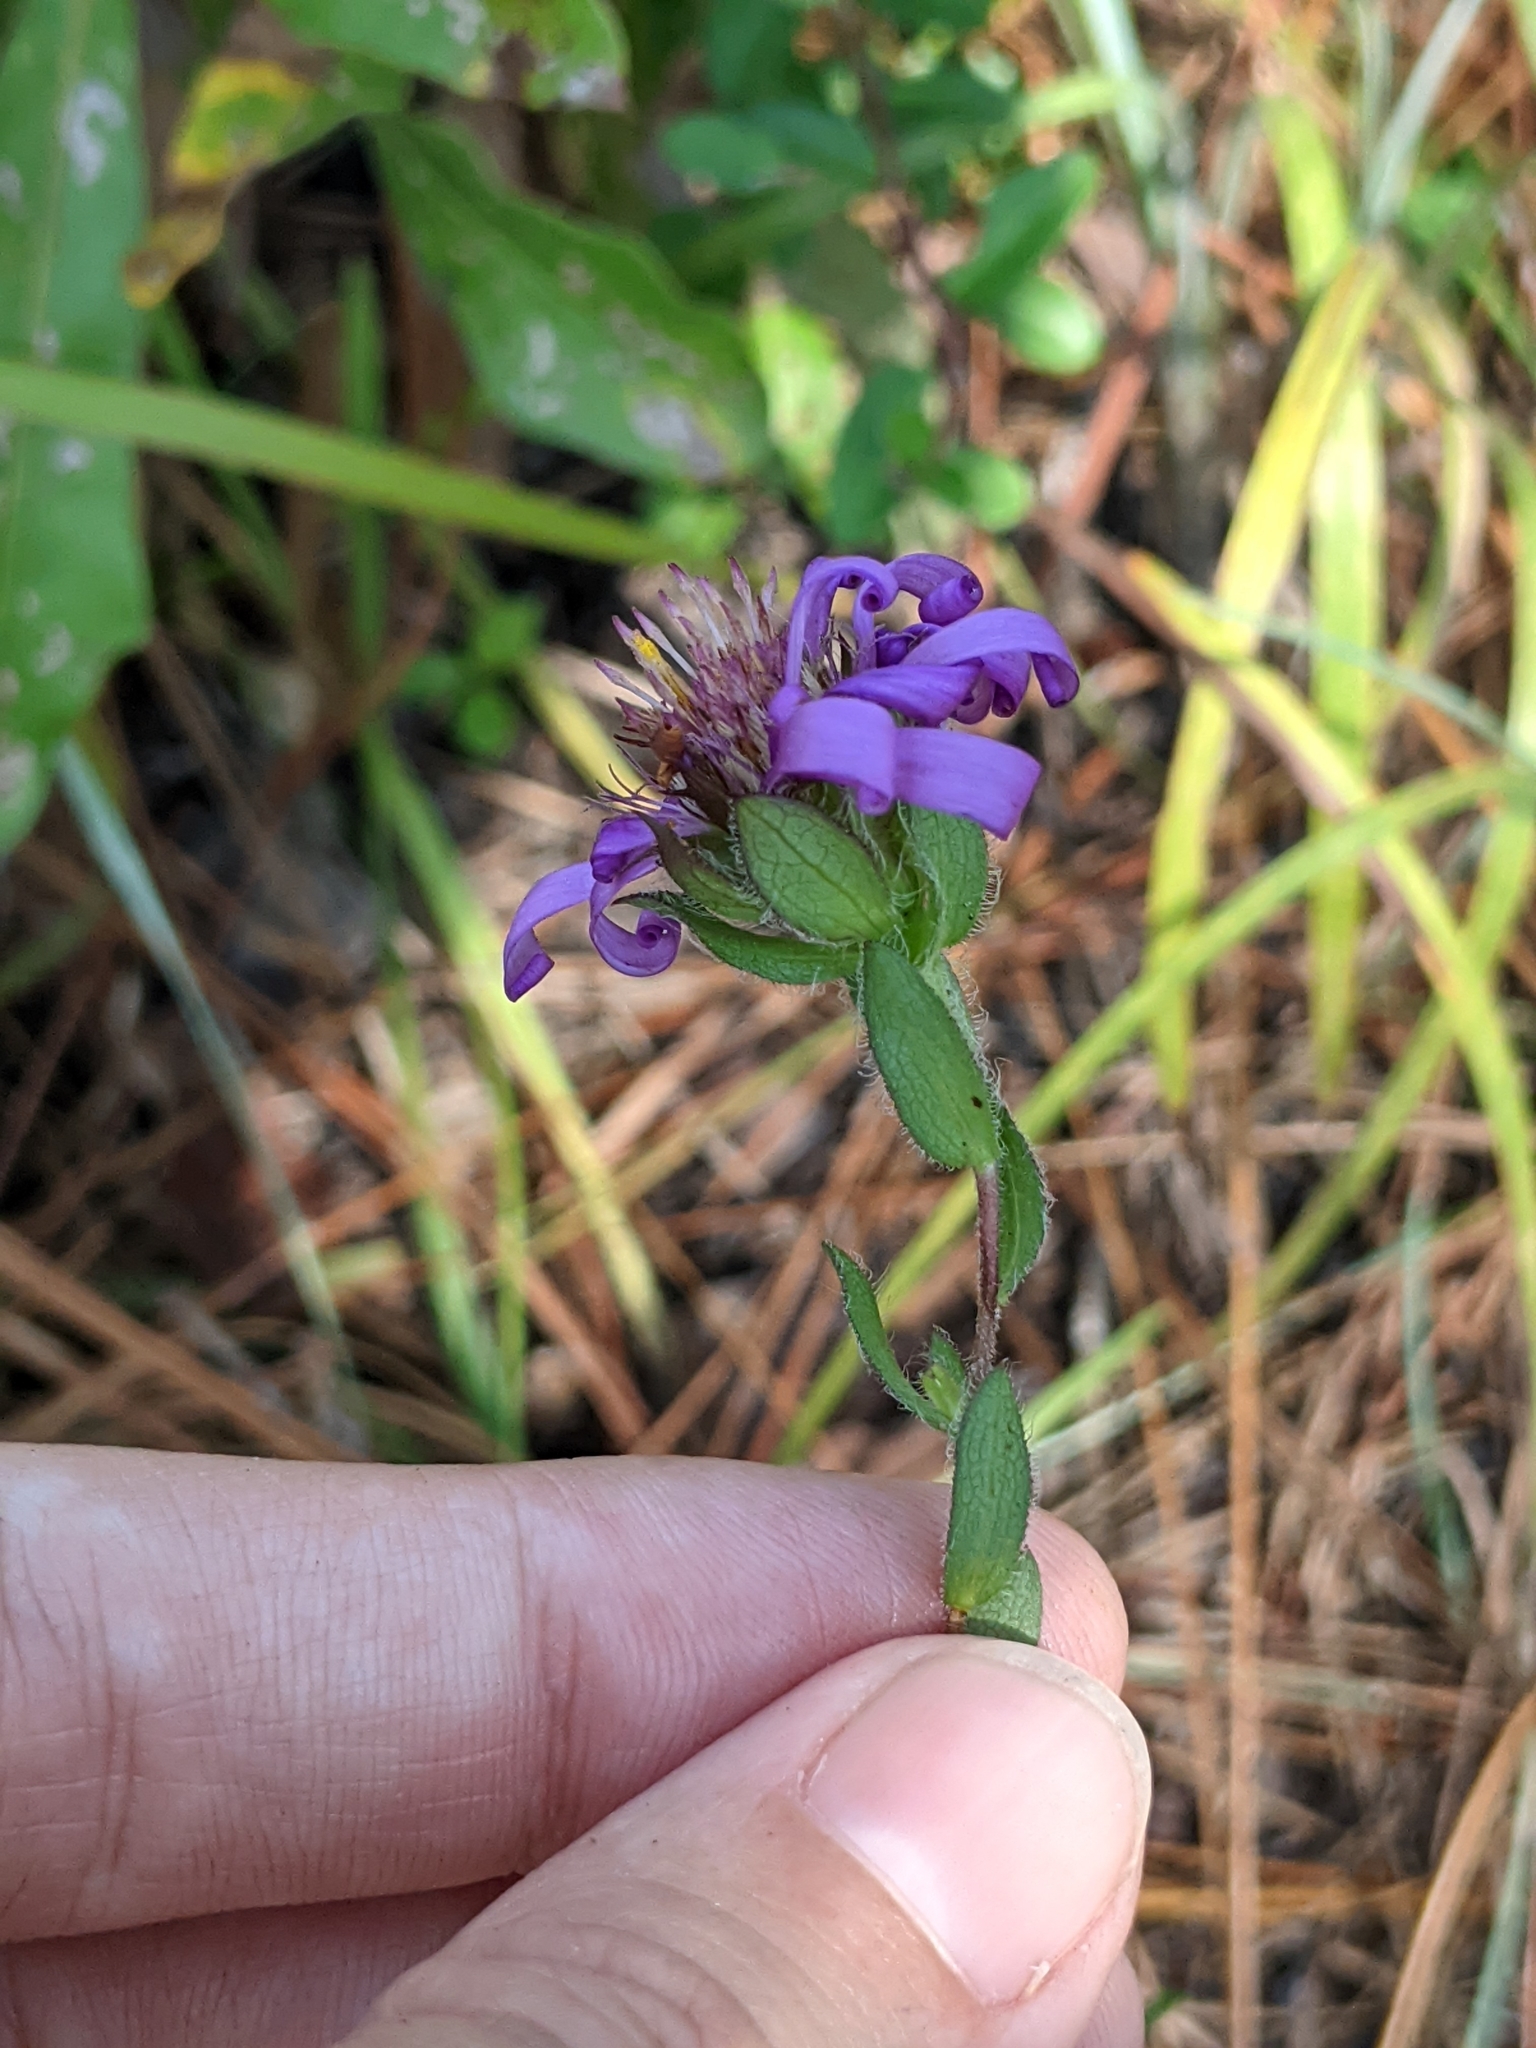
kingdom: Plantae
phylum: Tracheophyta
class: Magnoliopsida
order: Asterales
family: Asteraceae
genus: Symphyotrichum
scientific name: Symphyotrichum pratense
